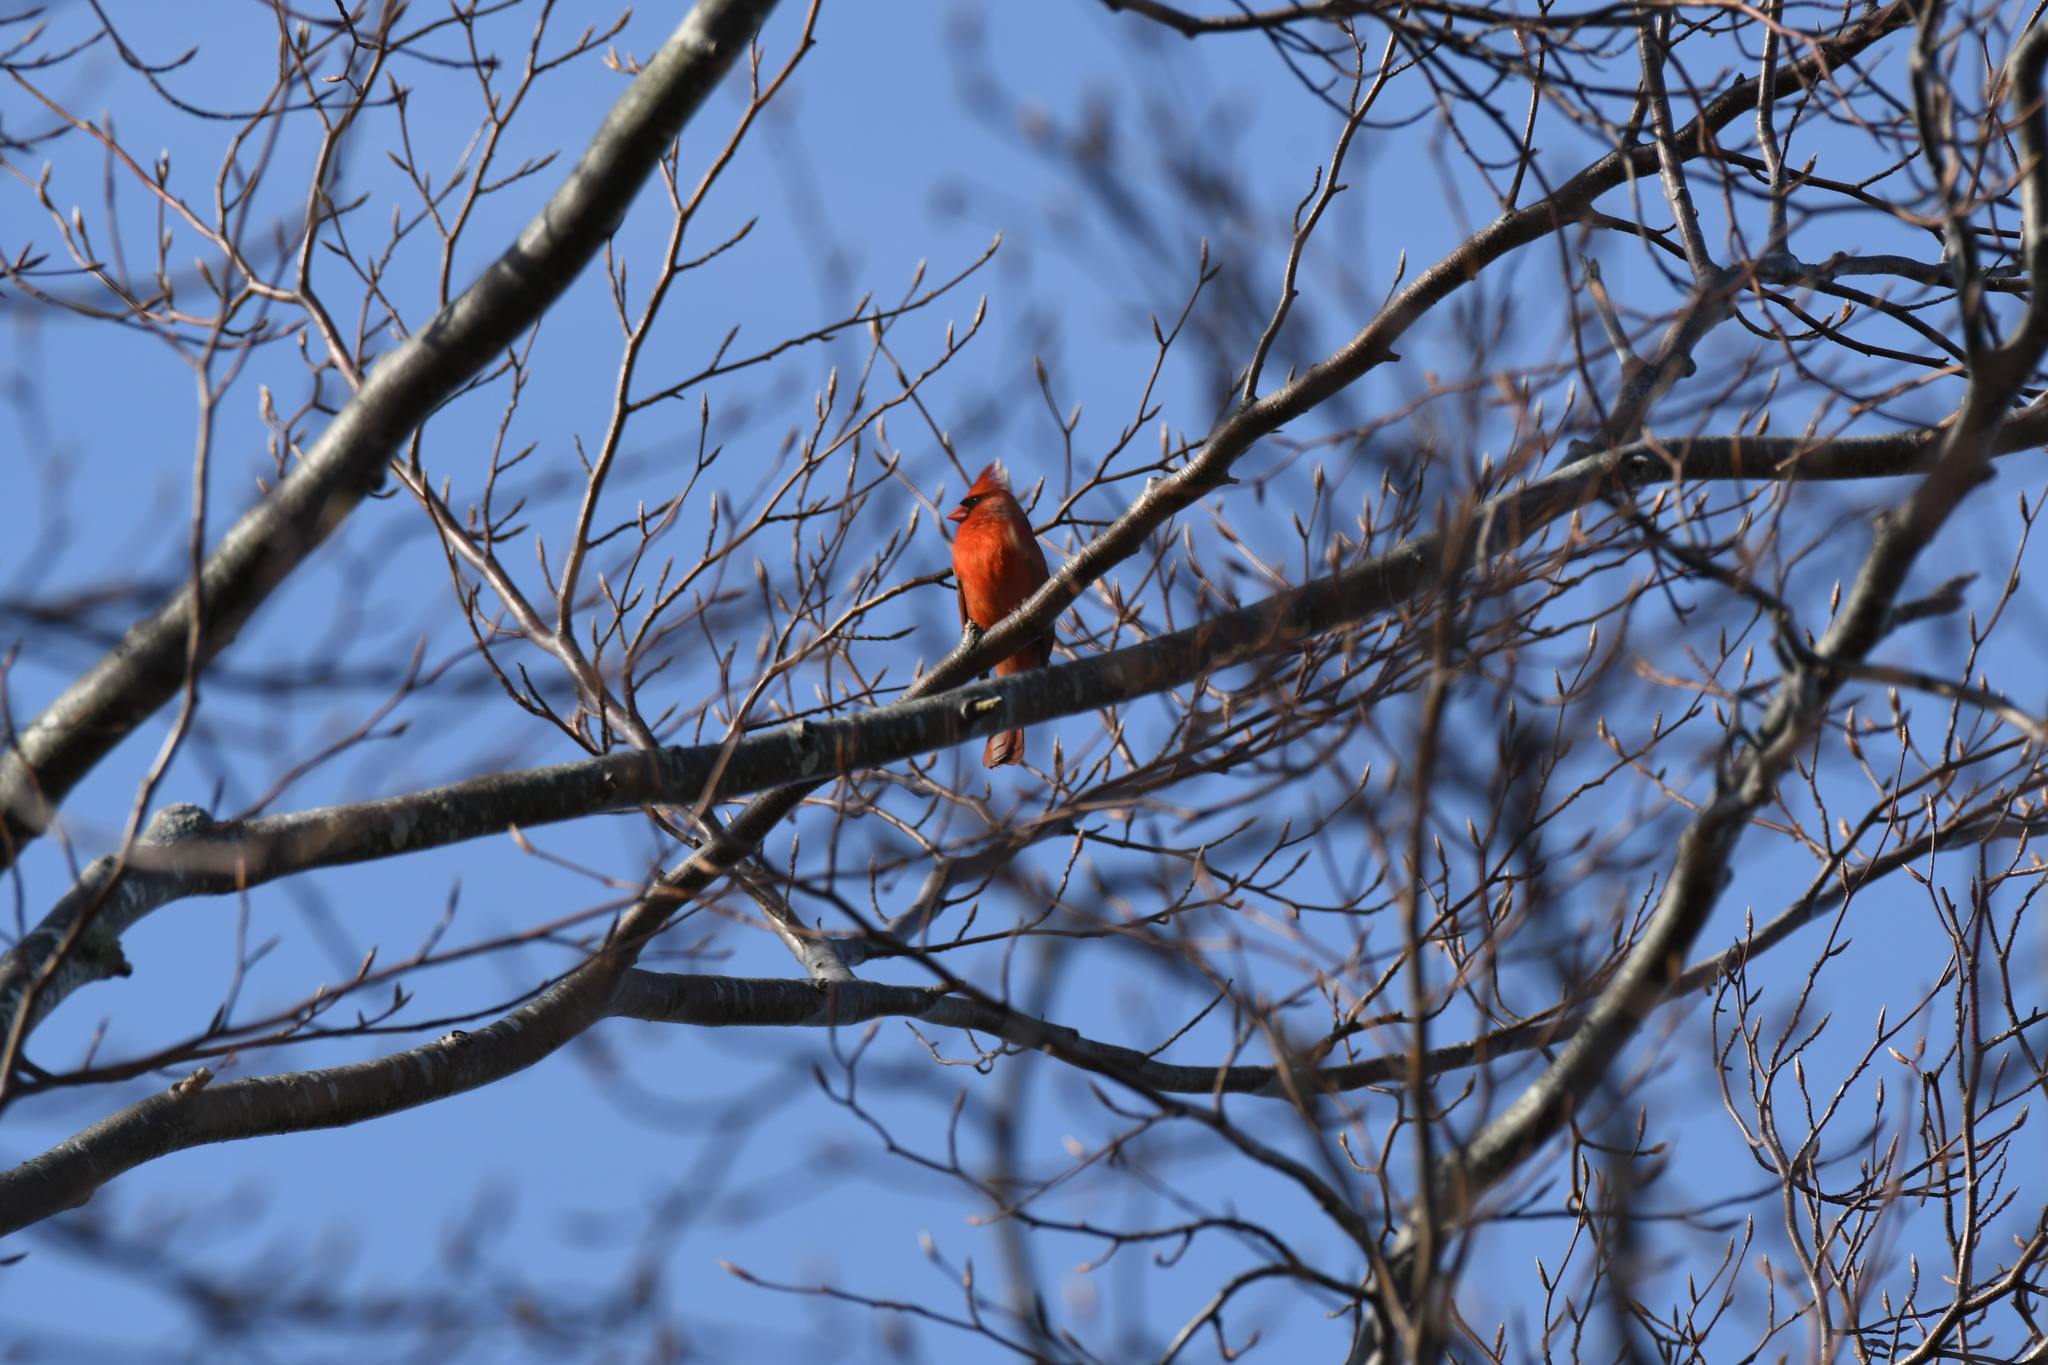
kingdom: Animalia
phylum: Chordata
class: Aves
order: Passeriformes
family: Cardinalidae
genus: Cardinalis
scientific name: Cardinalis cardinalis
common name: Northern cardinal
